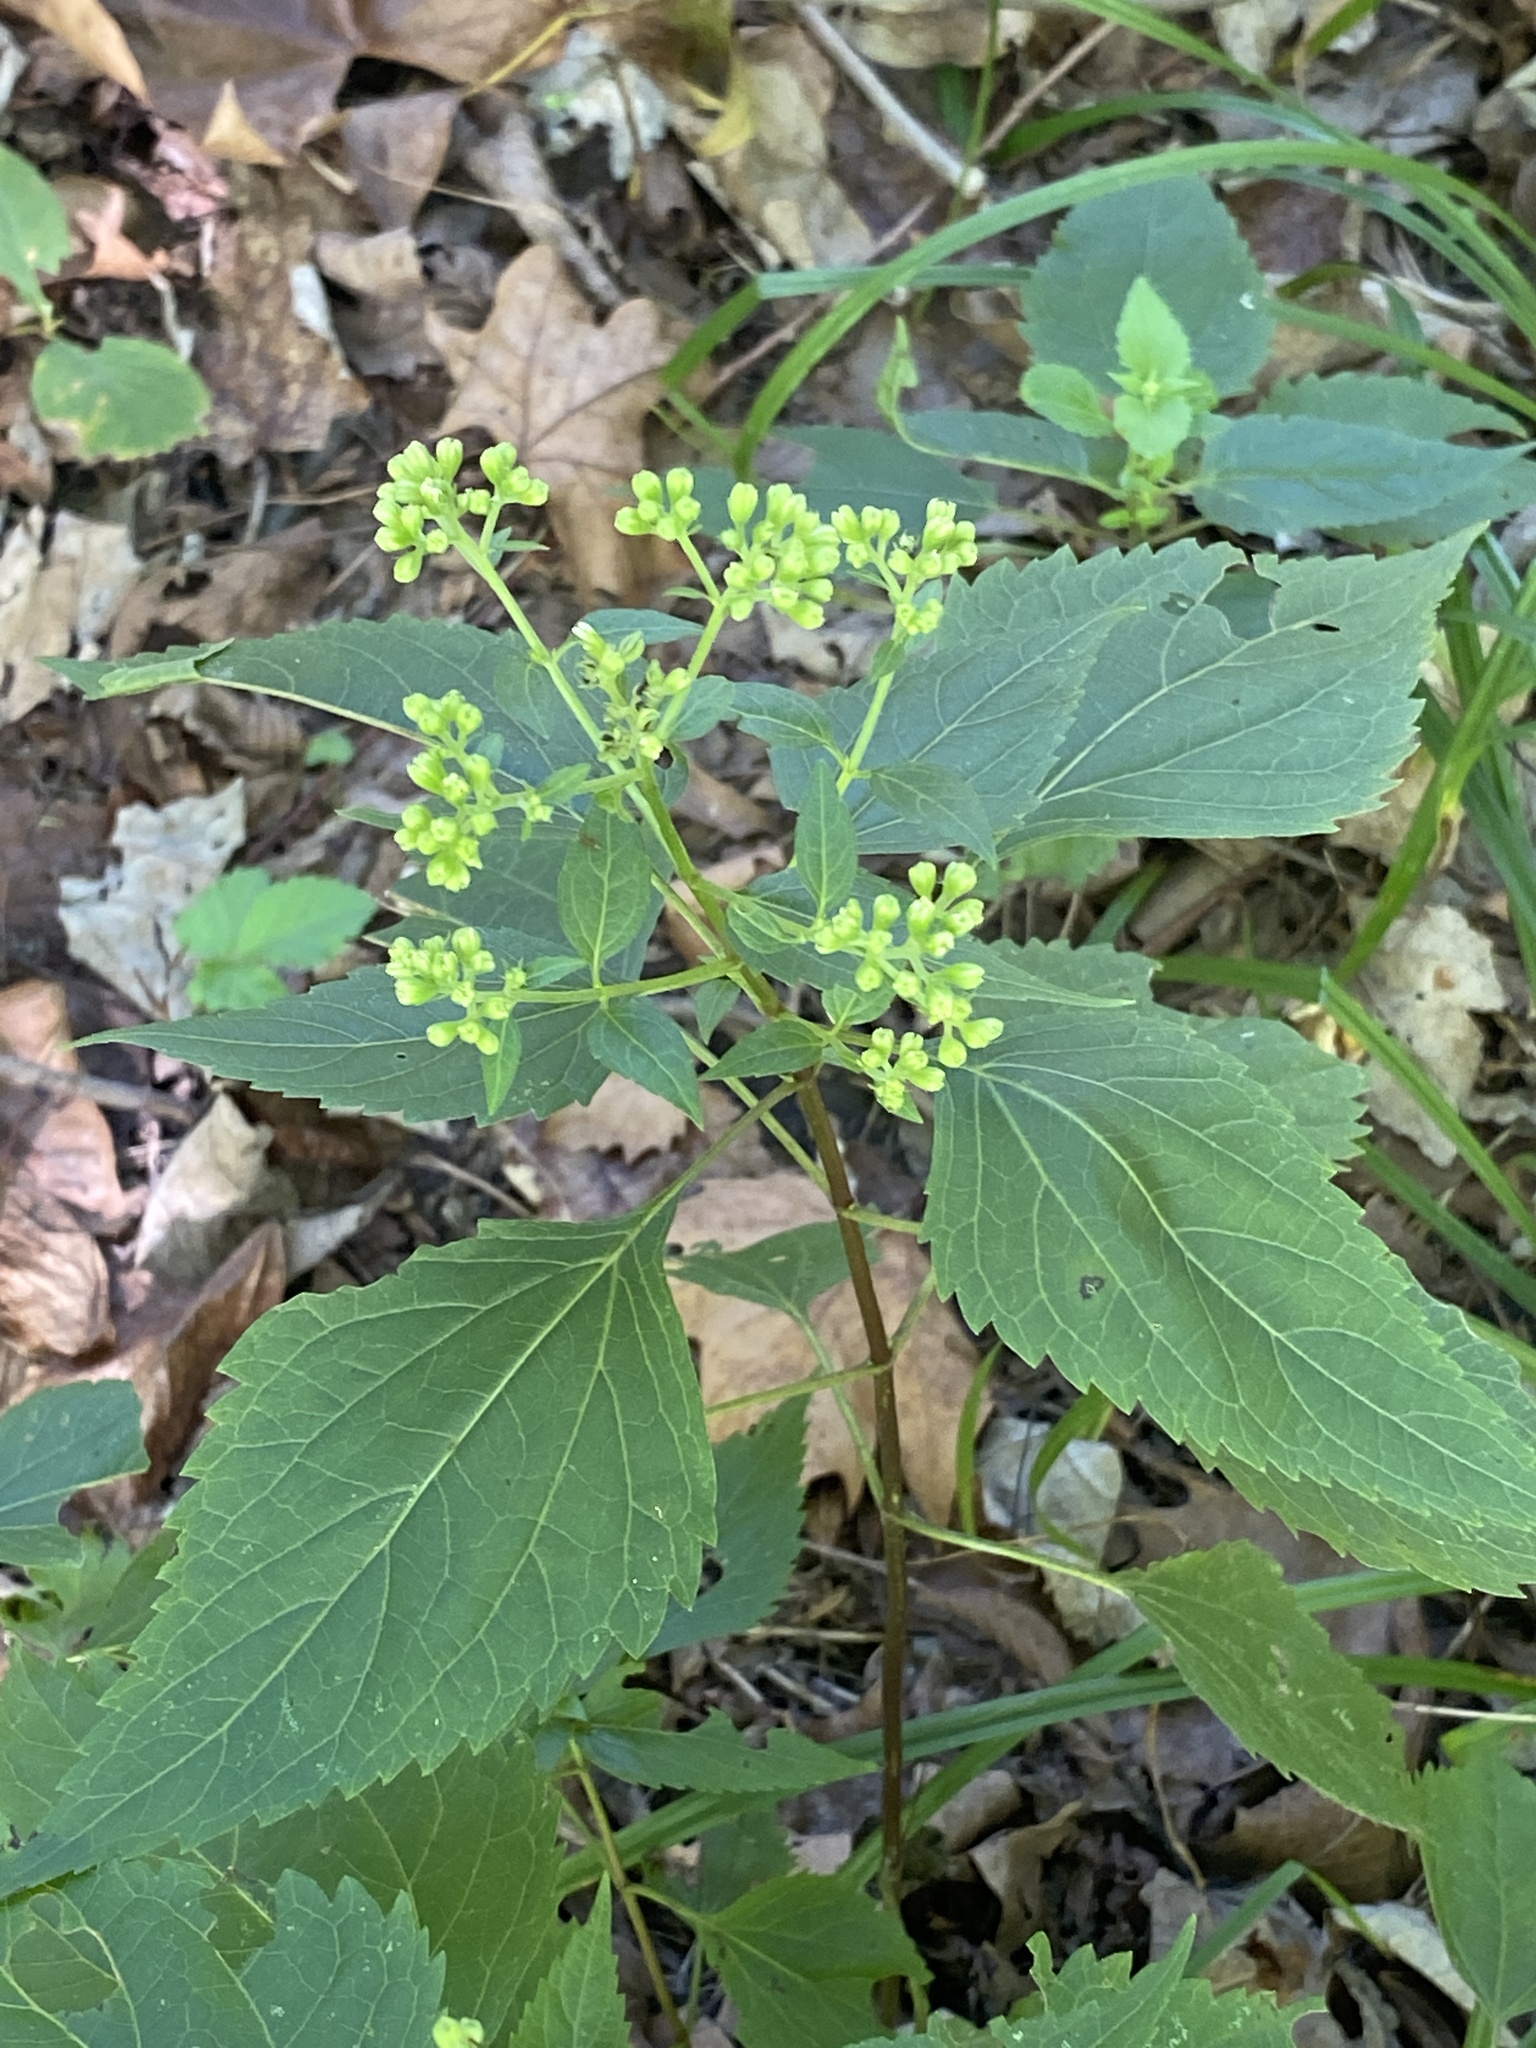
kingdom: Plantae
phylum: Tracheophyta
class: Magnoliopsida
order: Asterales
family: Asteraceae
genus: Ageratina
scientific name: Ageratina altissima
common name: White snakeroot
